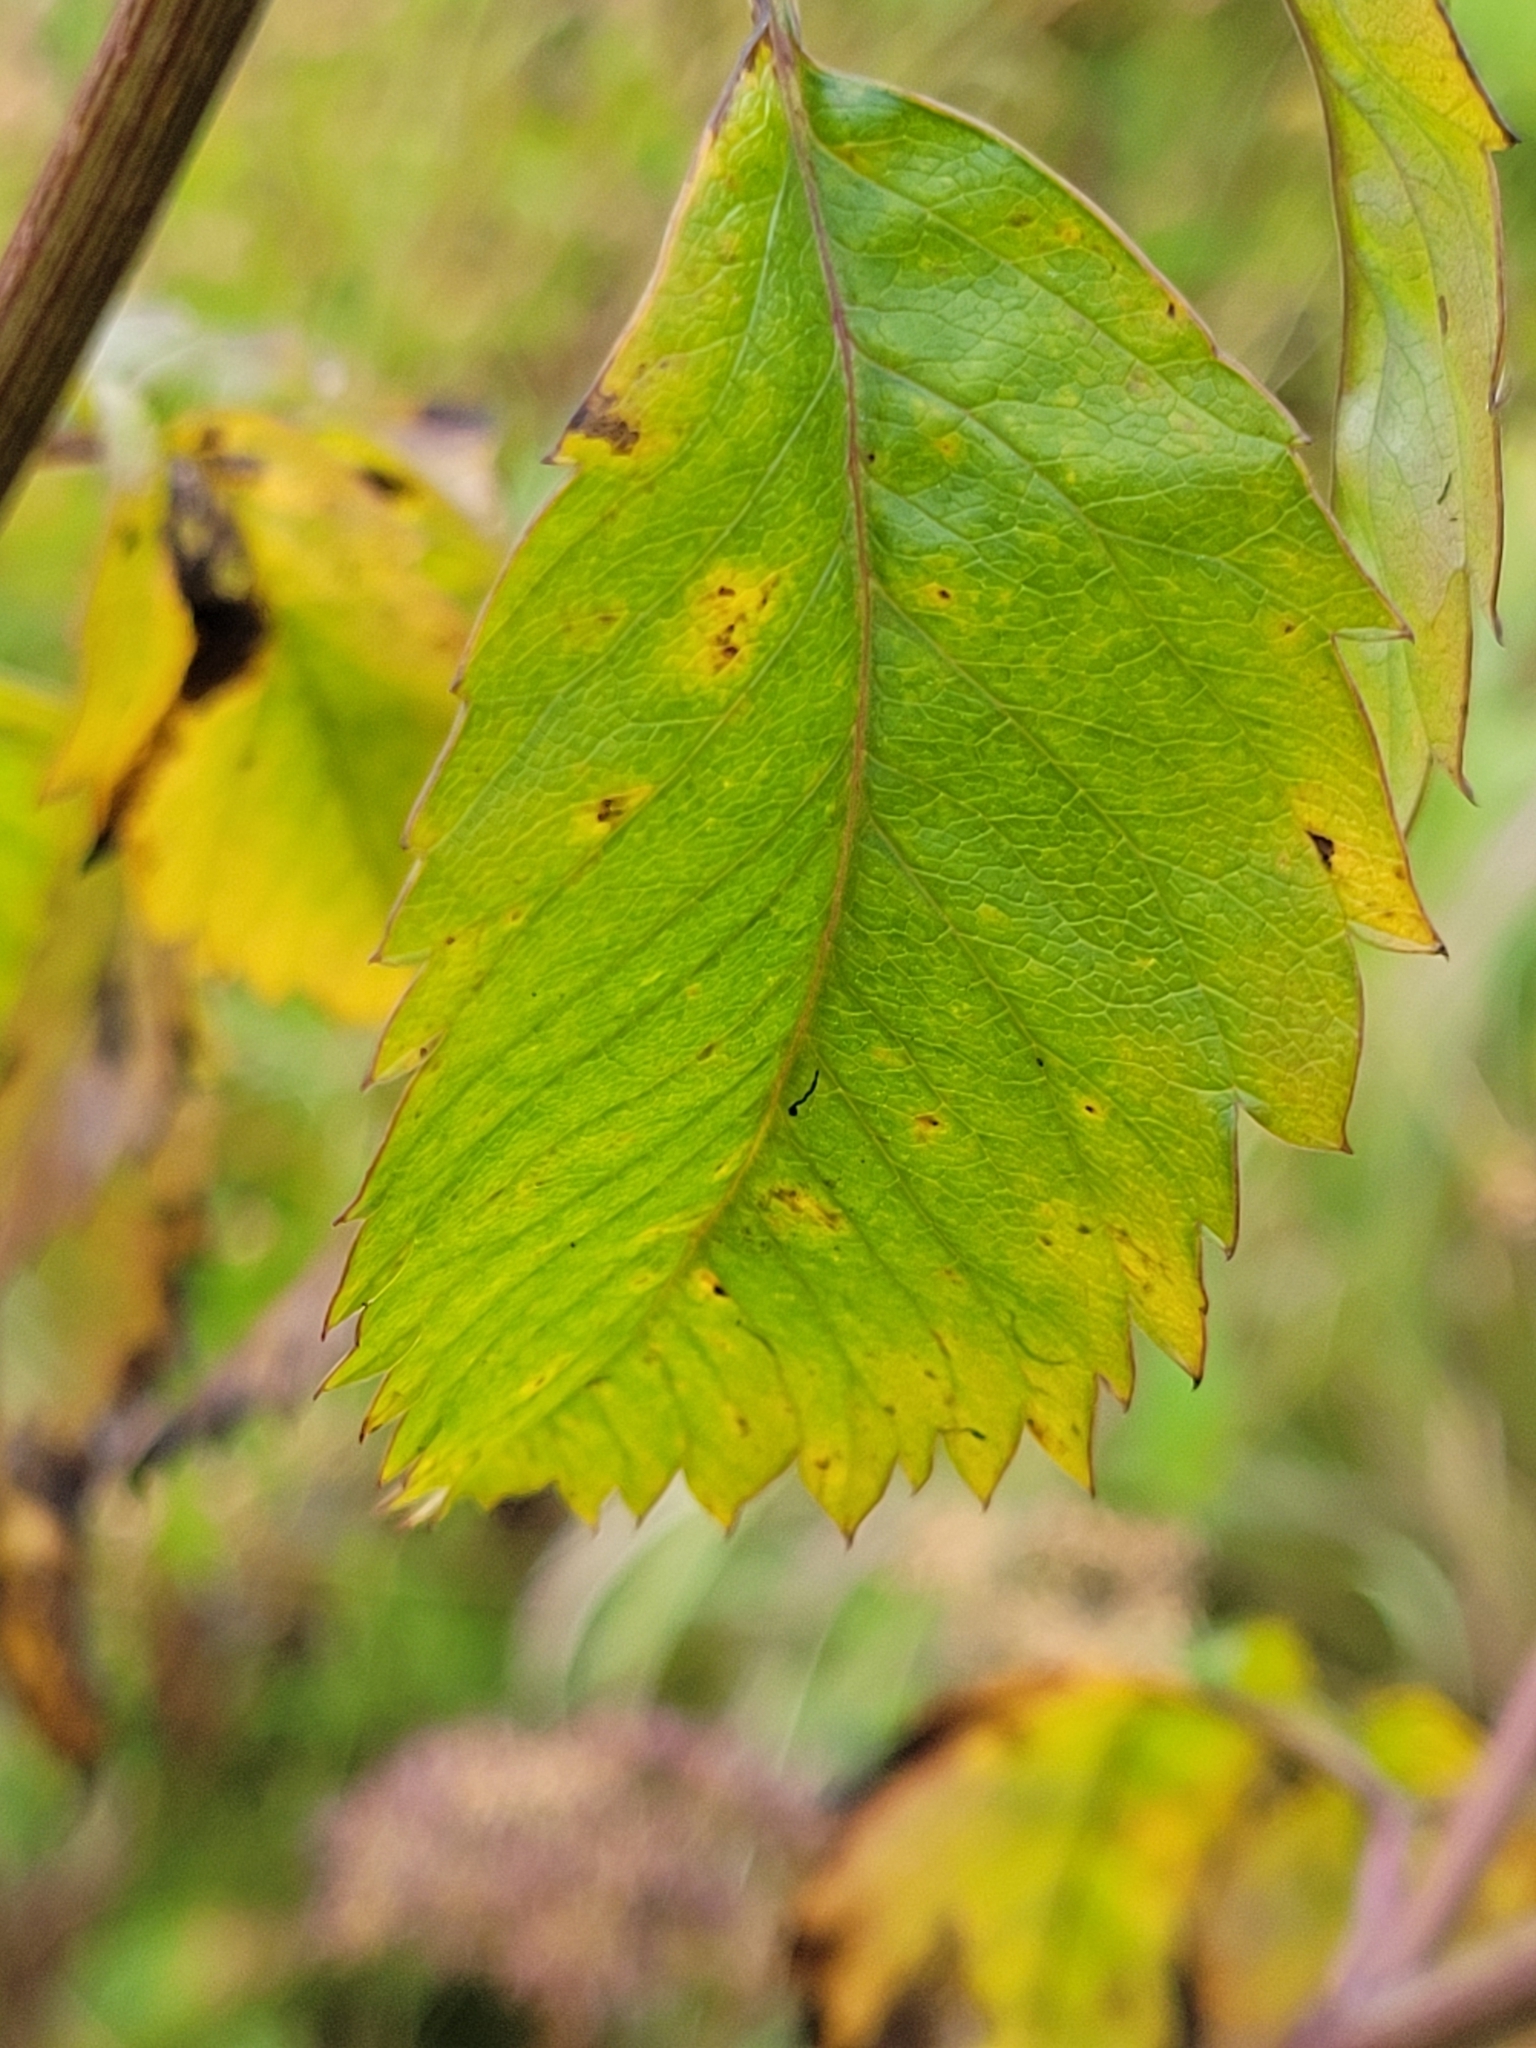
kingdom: Plantae
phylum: Tracheophyta
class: Magnoliopsida
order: Apiales
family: Apiaceae
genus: Cicuta
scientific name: Cicuta maculata
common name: Spotted cowbane
